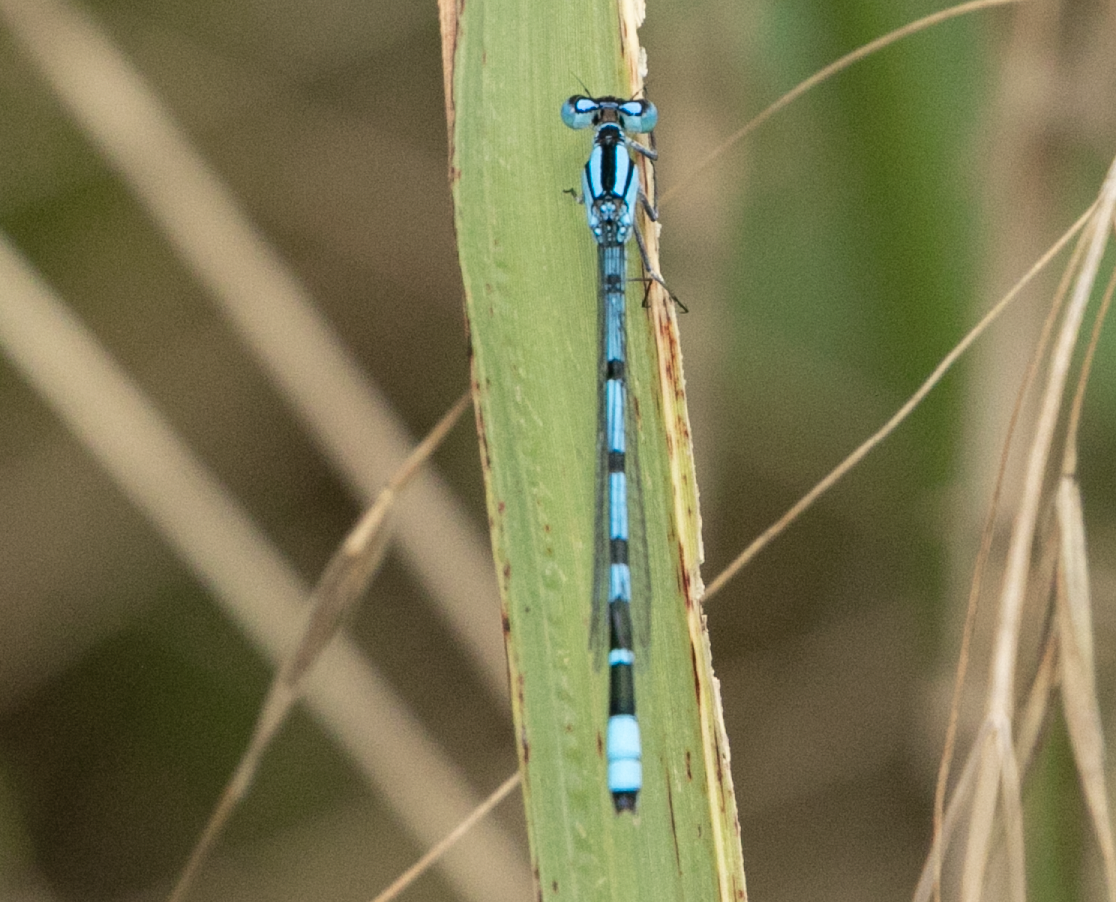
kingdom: Animalia
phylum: Arthropoda
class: Insecta
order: Odonata
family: Coenagrionidae
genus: Enallagma
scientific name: Enallagma cyathigerum
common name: Common blue damselfly
